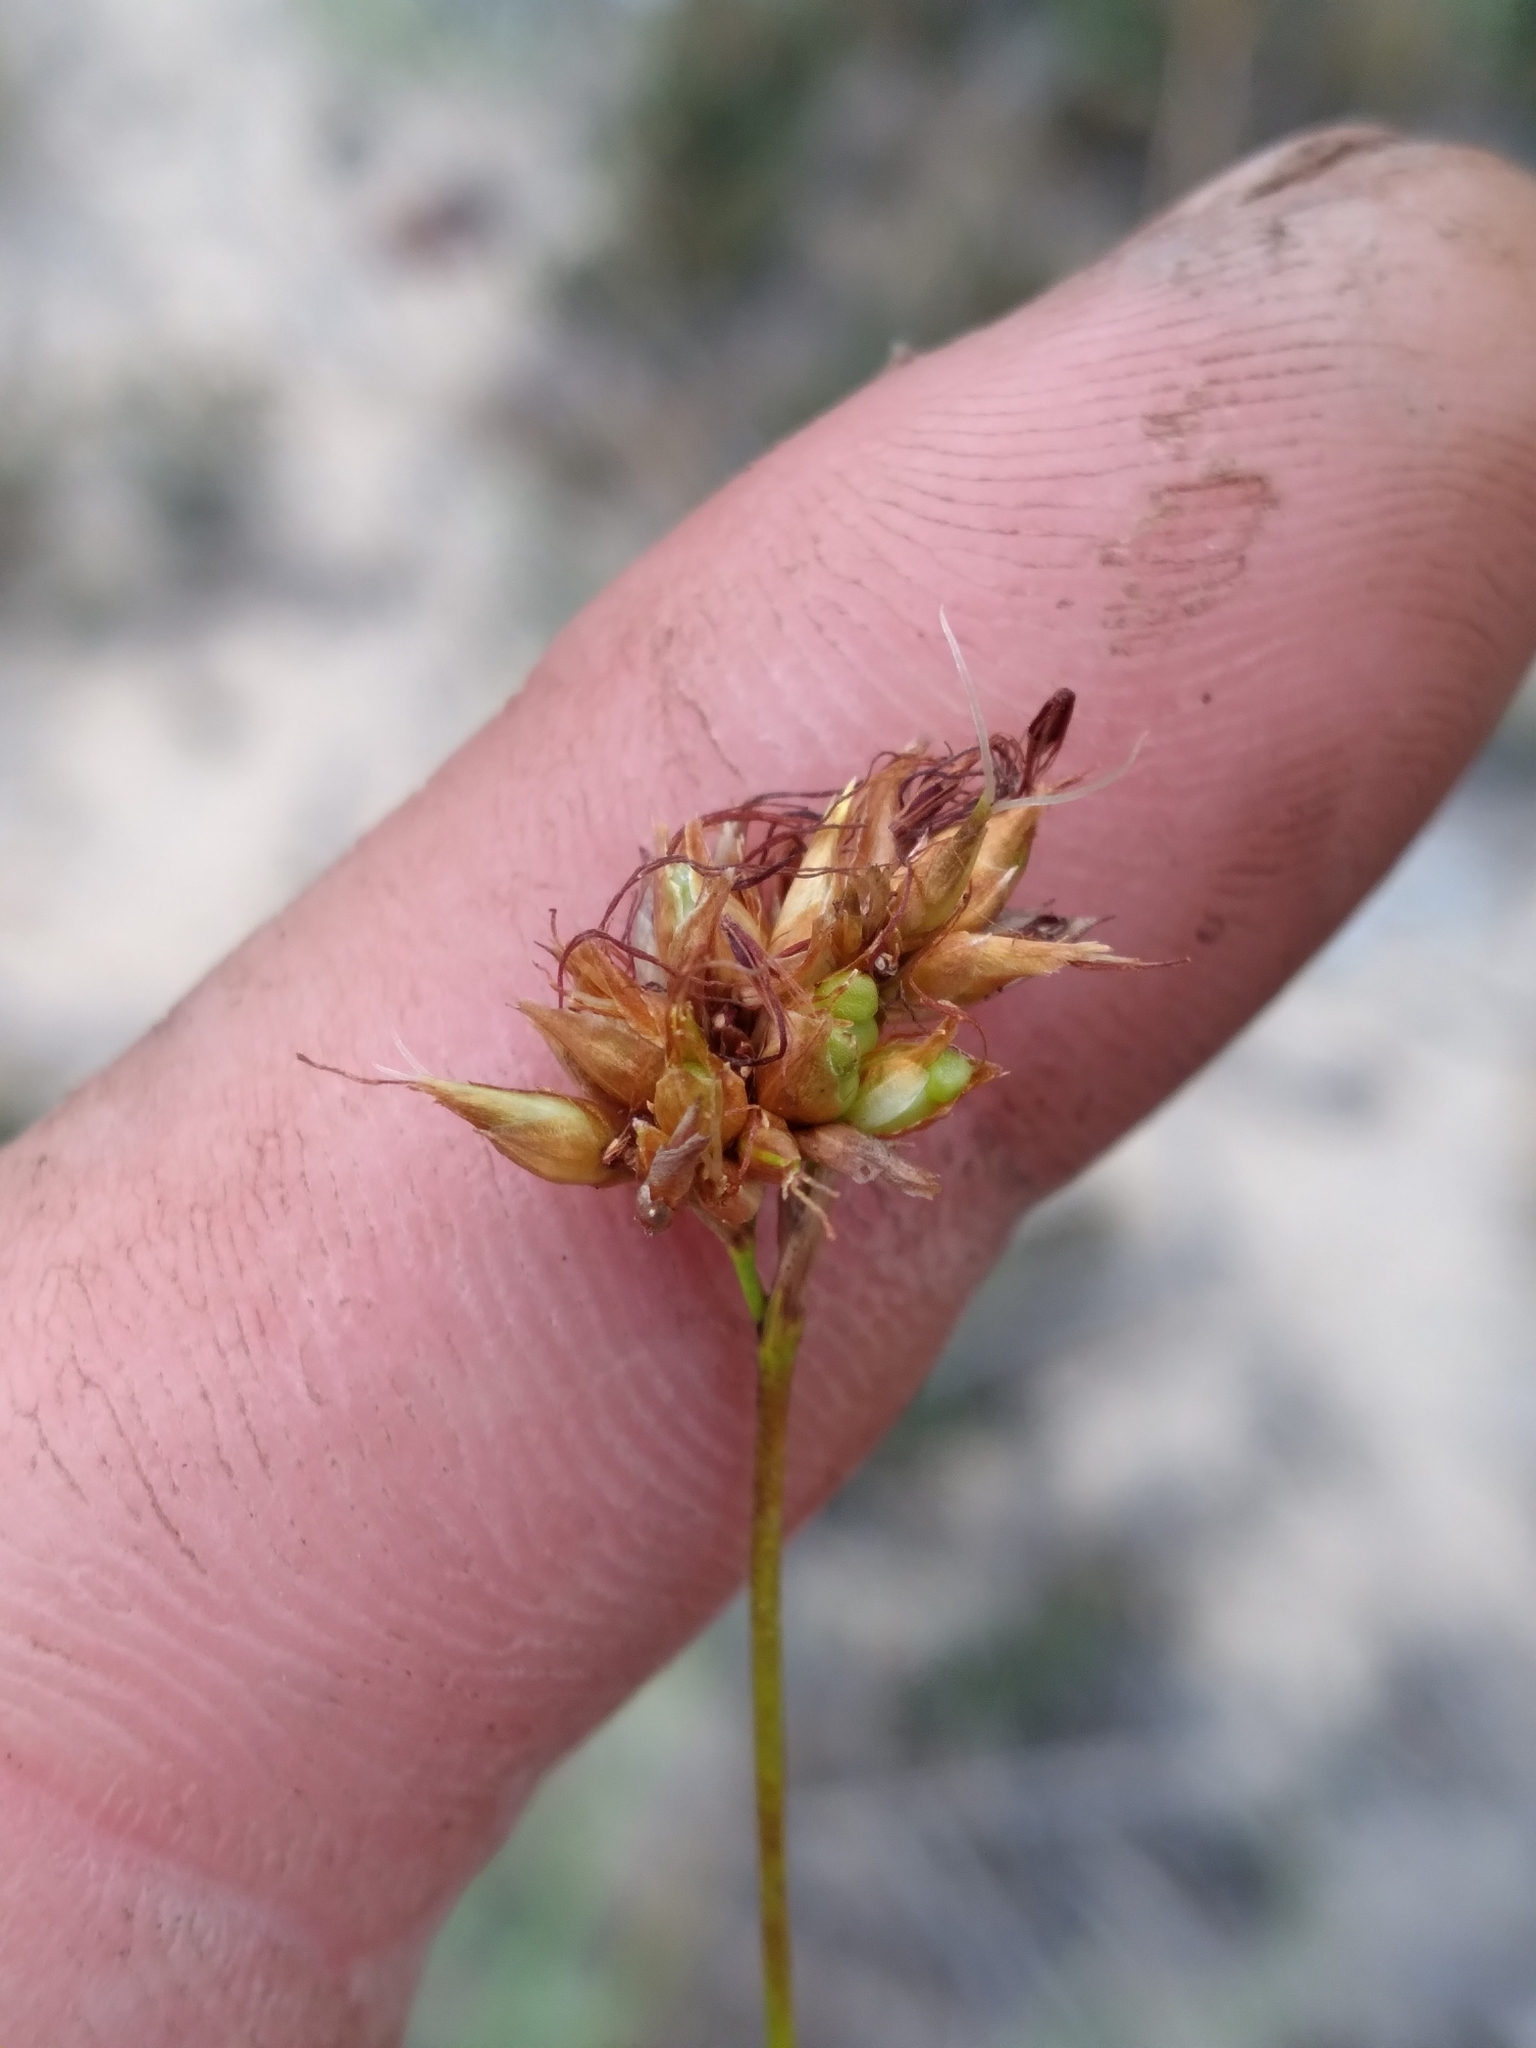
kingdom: Plantae
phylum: Tracheophyta
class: Liliopsida
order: Poales
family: Cyperaceae
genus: Rhynchospora
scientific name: Rhynchospora grayi
